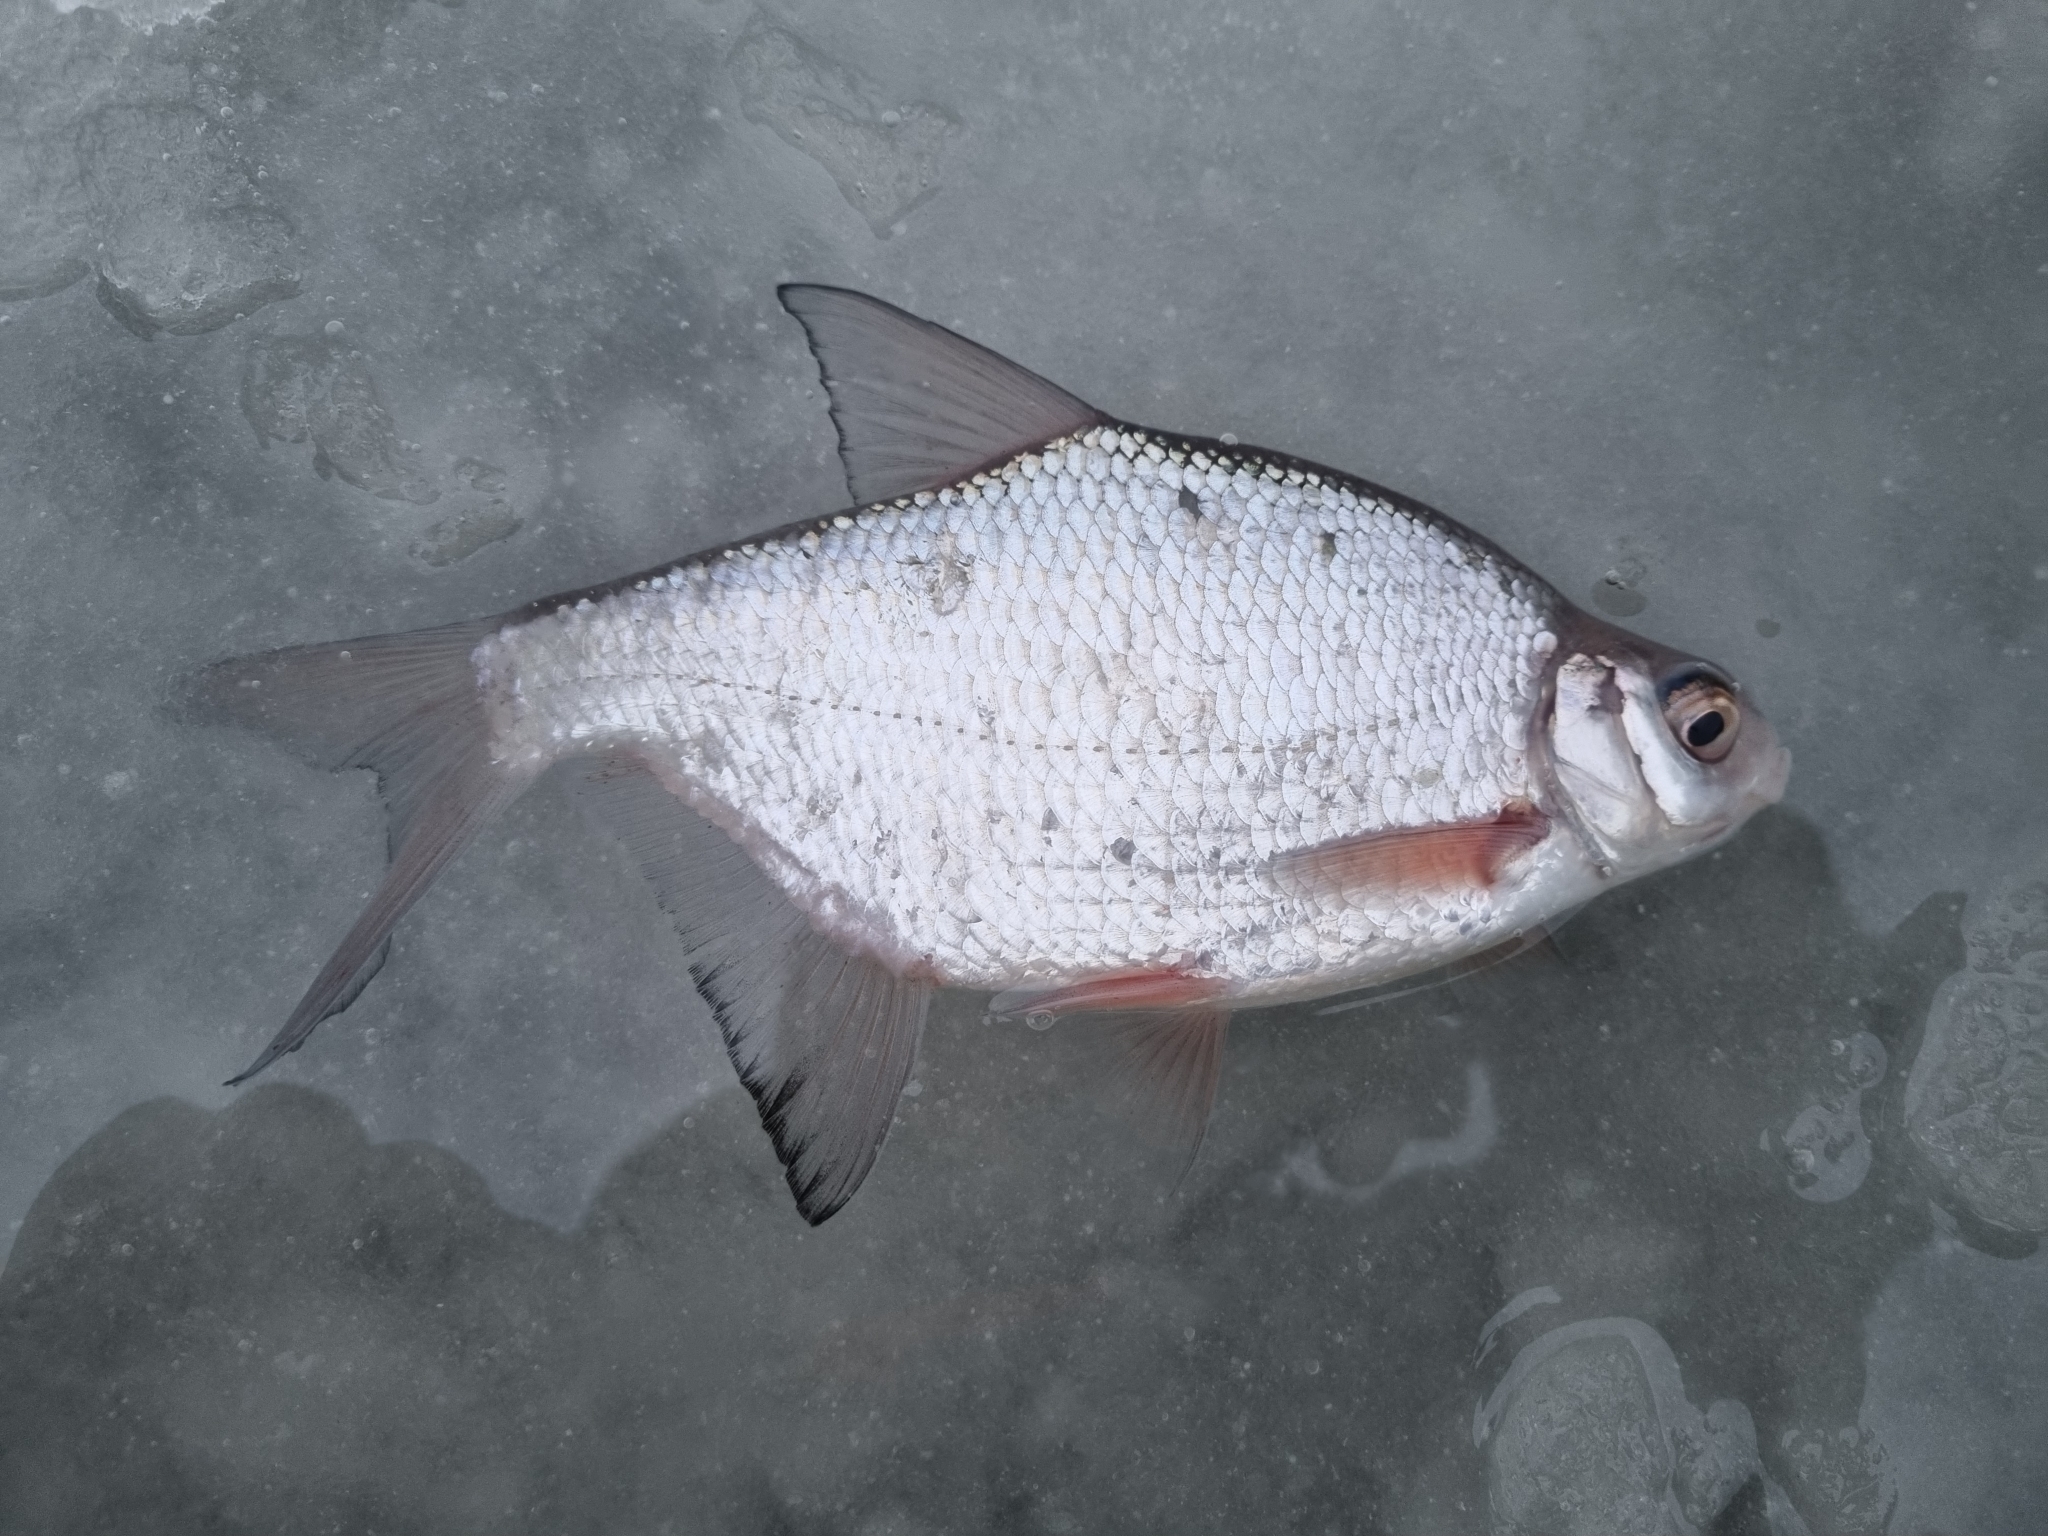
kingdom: Animalia
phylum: Chordata
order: Cypriniformes
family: Cyprinidae
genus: Blicca
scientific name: Blicca bjoerkna
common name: White bream
